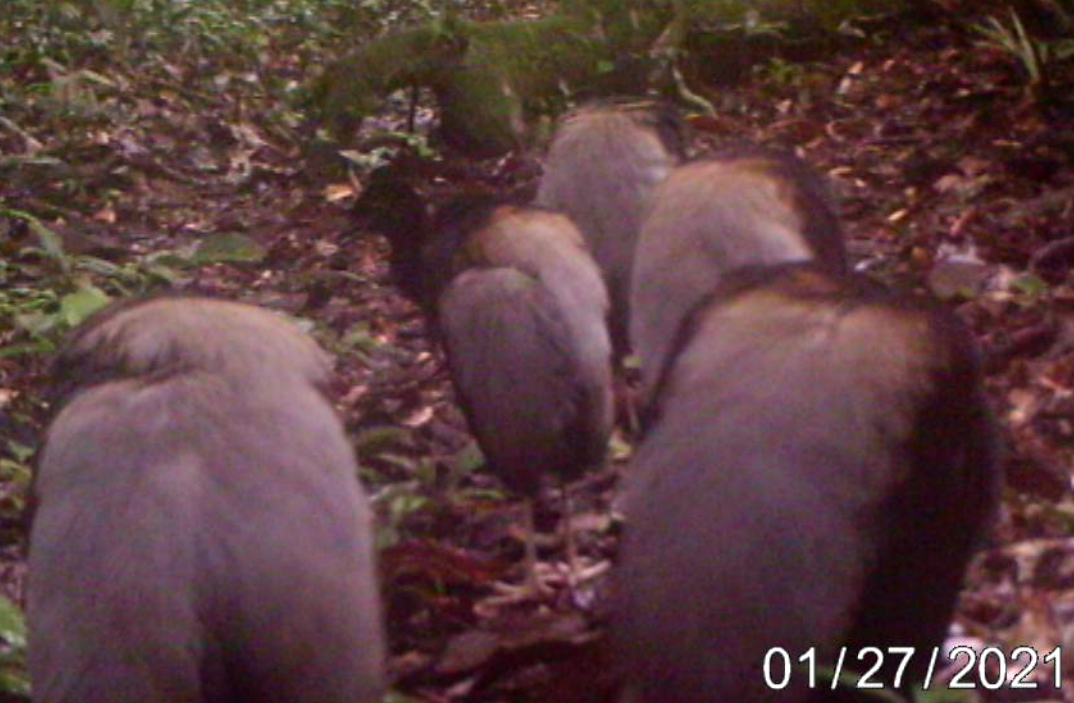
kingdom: Animalia
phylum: Chordata
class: Aves
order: Gruiformes
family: Psophiidae
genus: Psophia
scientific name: Psophia crepitans
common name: Grey-winged trumpeter
